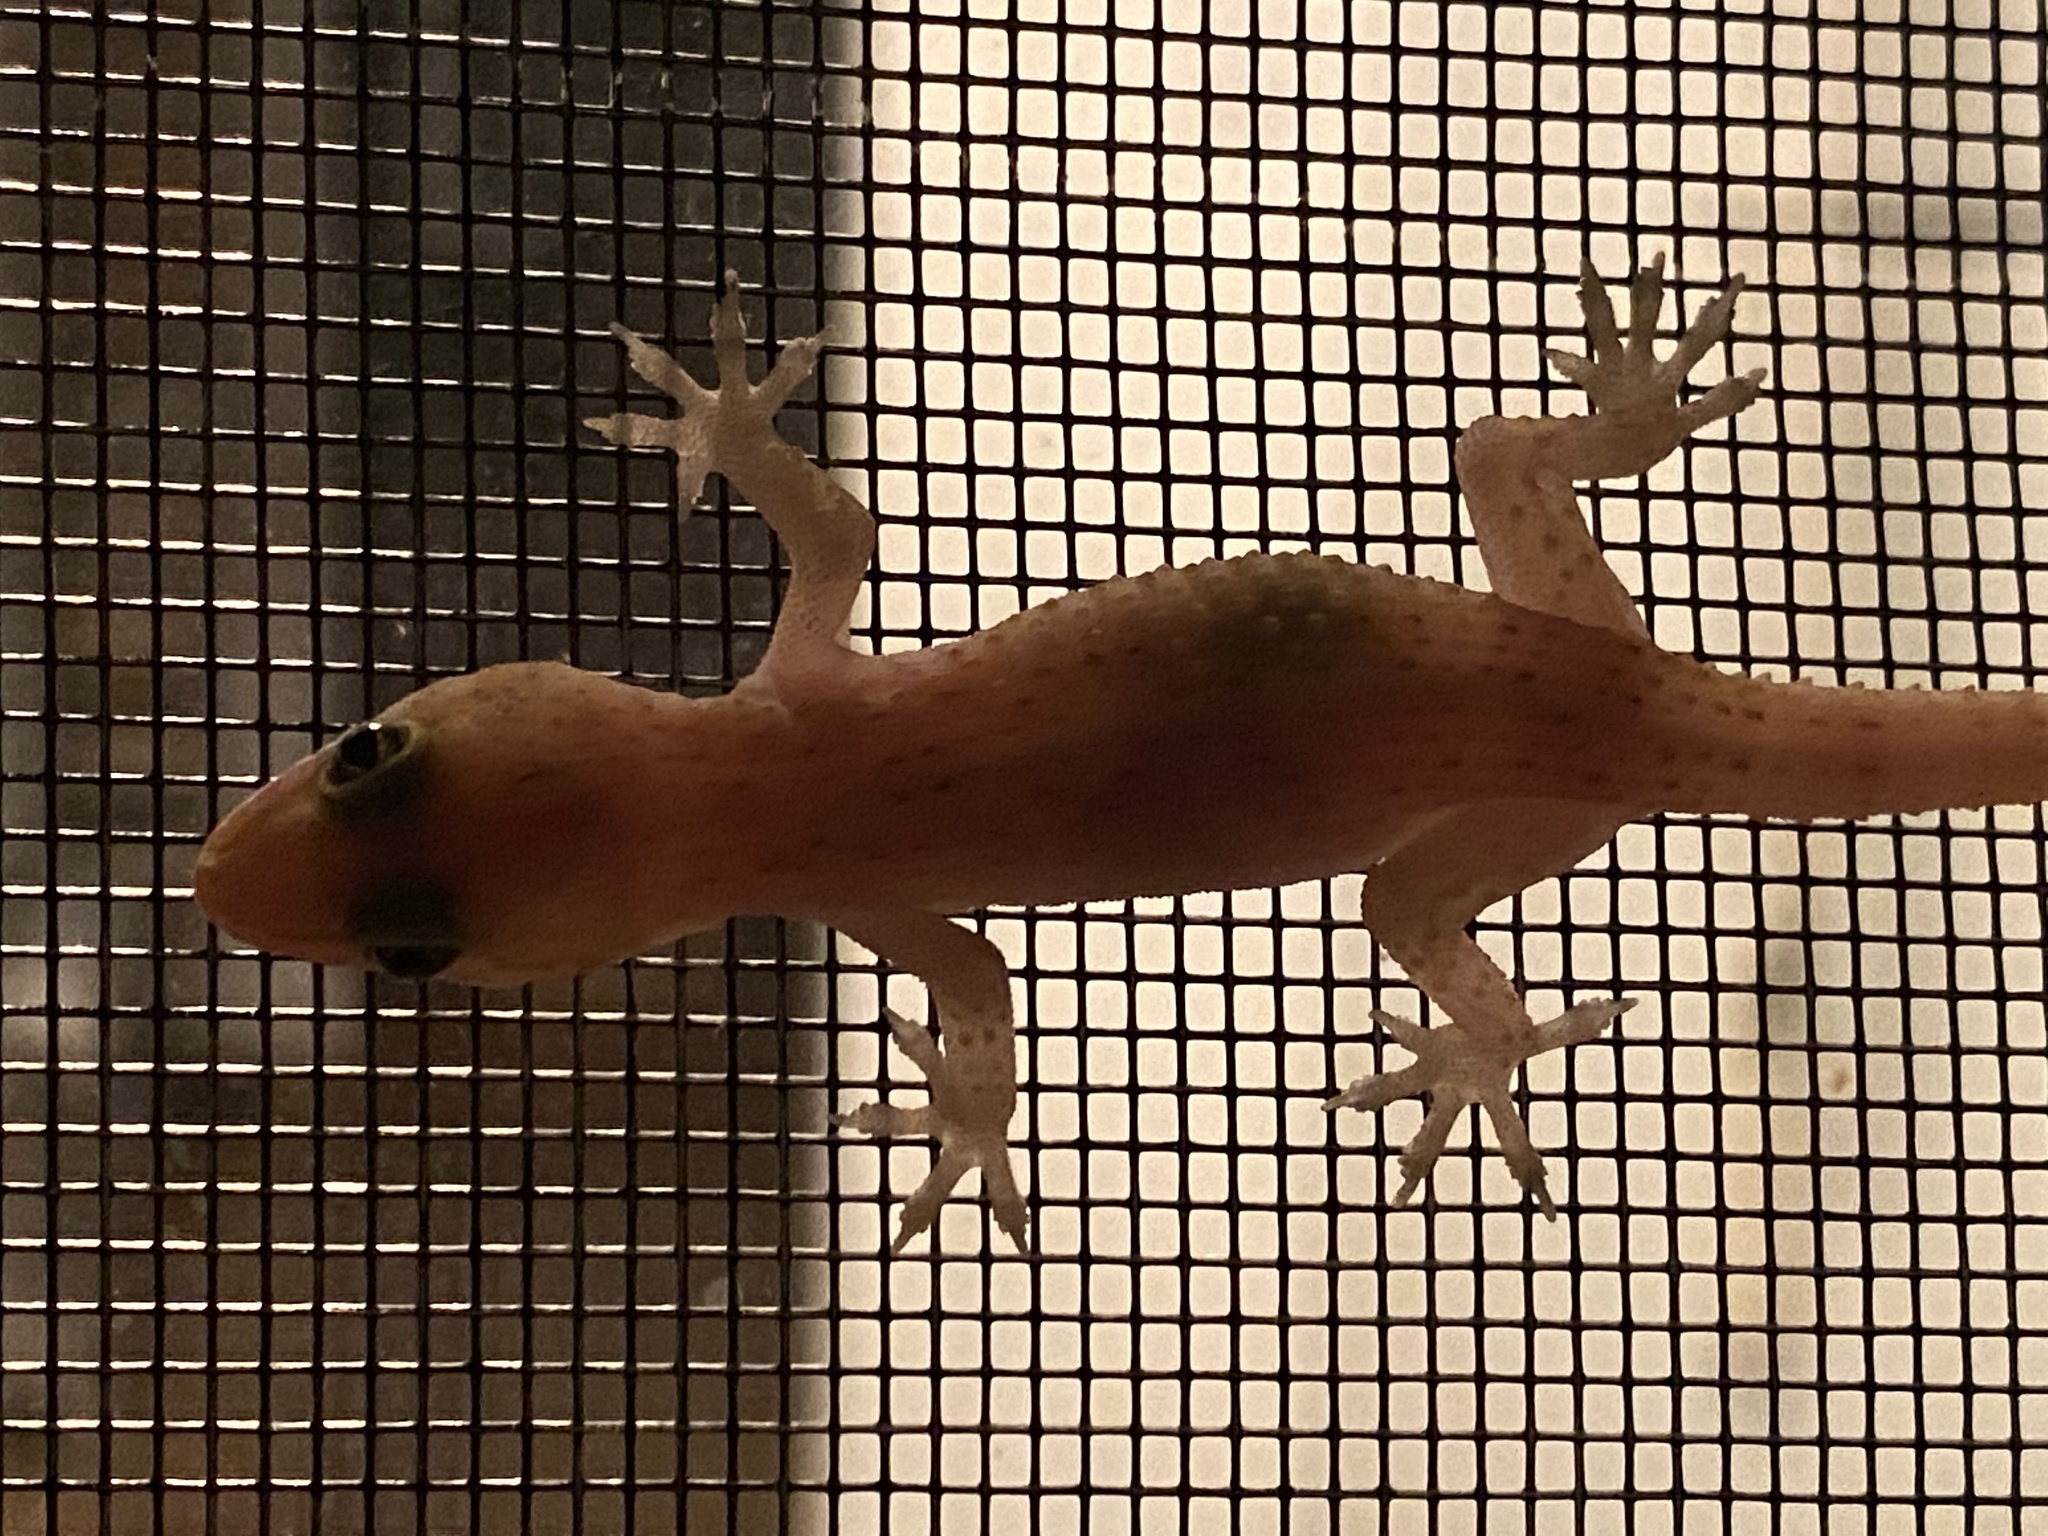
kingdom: Animalia
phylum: Chordata
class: Squamata
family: Gekkonidae
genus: Hemidactylus
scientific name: Hemidactylus turcicus
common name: Turkish gecko
